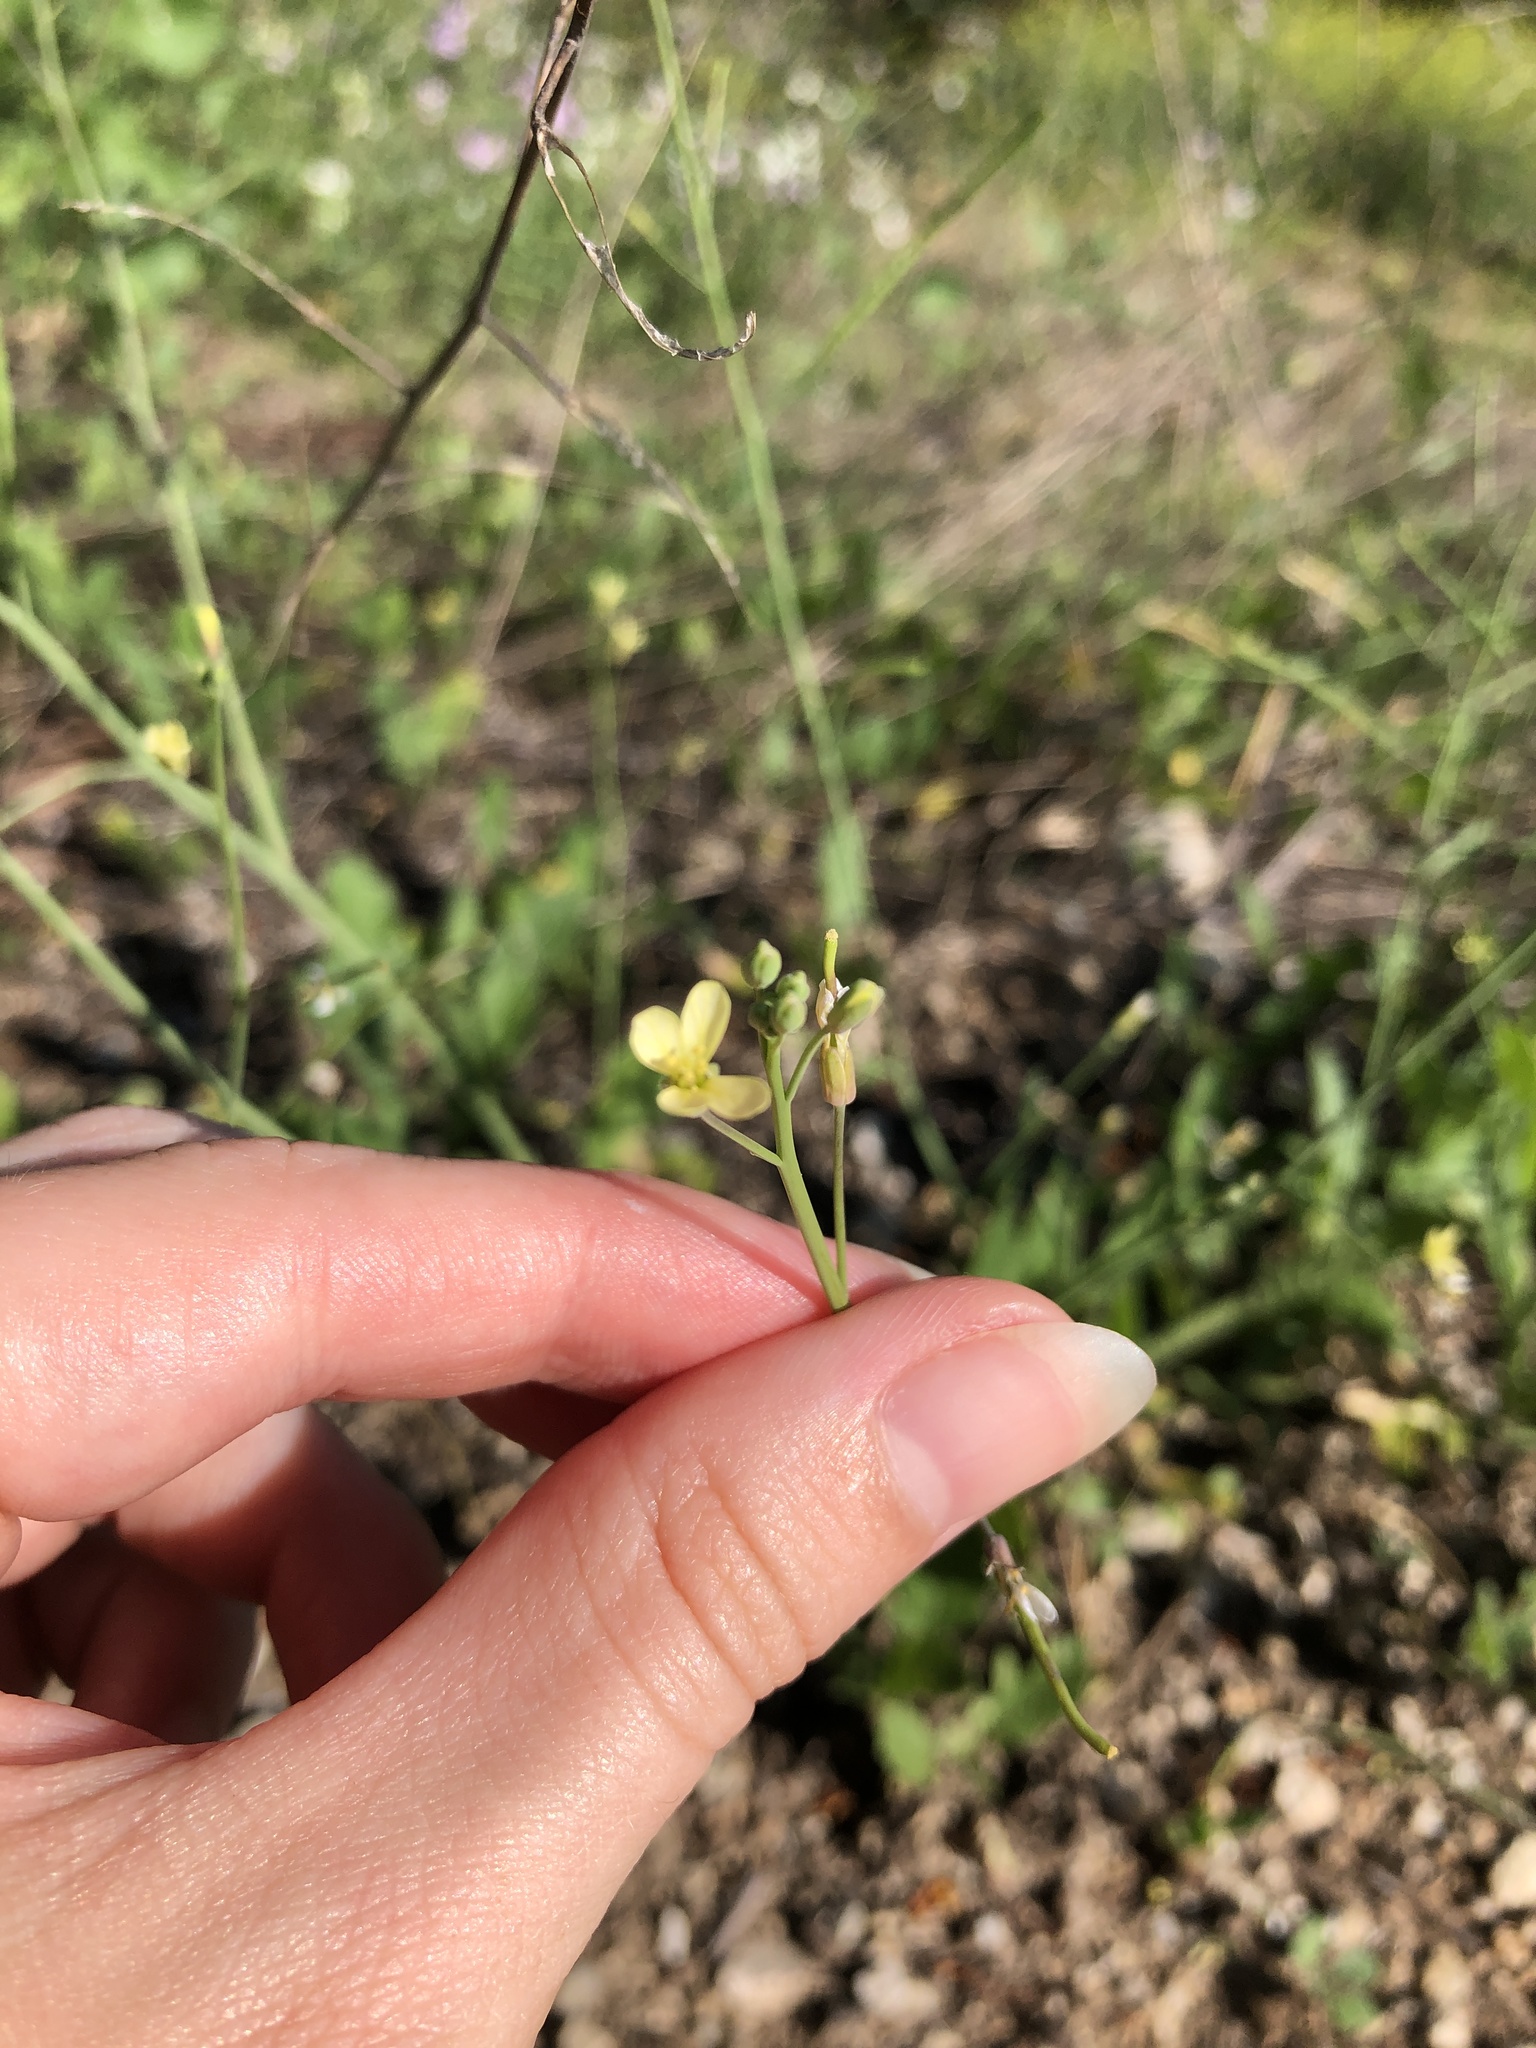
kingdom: Plantae
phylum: Tracheophyta
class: Magnoliopsida
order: Brassicales
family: Brassicaceae
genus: Brassica
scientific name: Brassica tournefortii
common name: Pale cabbage
